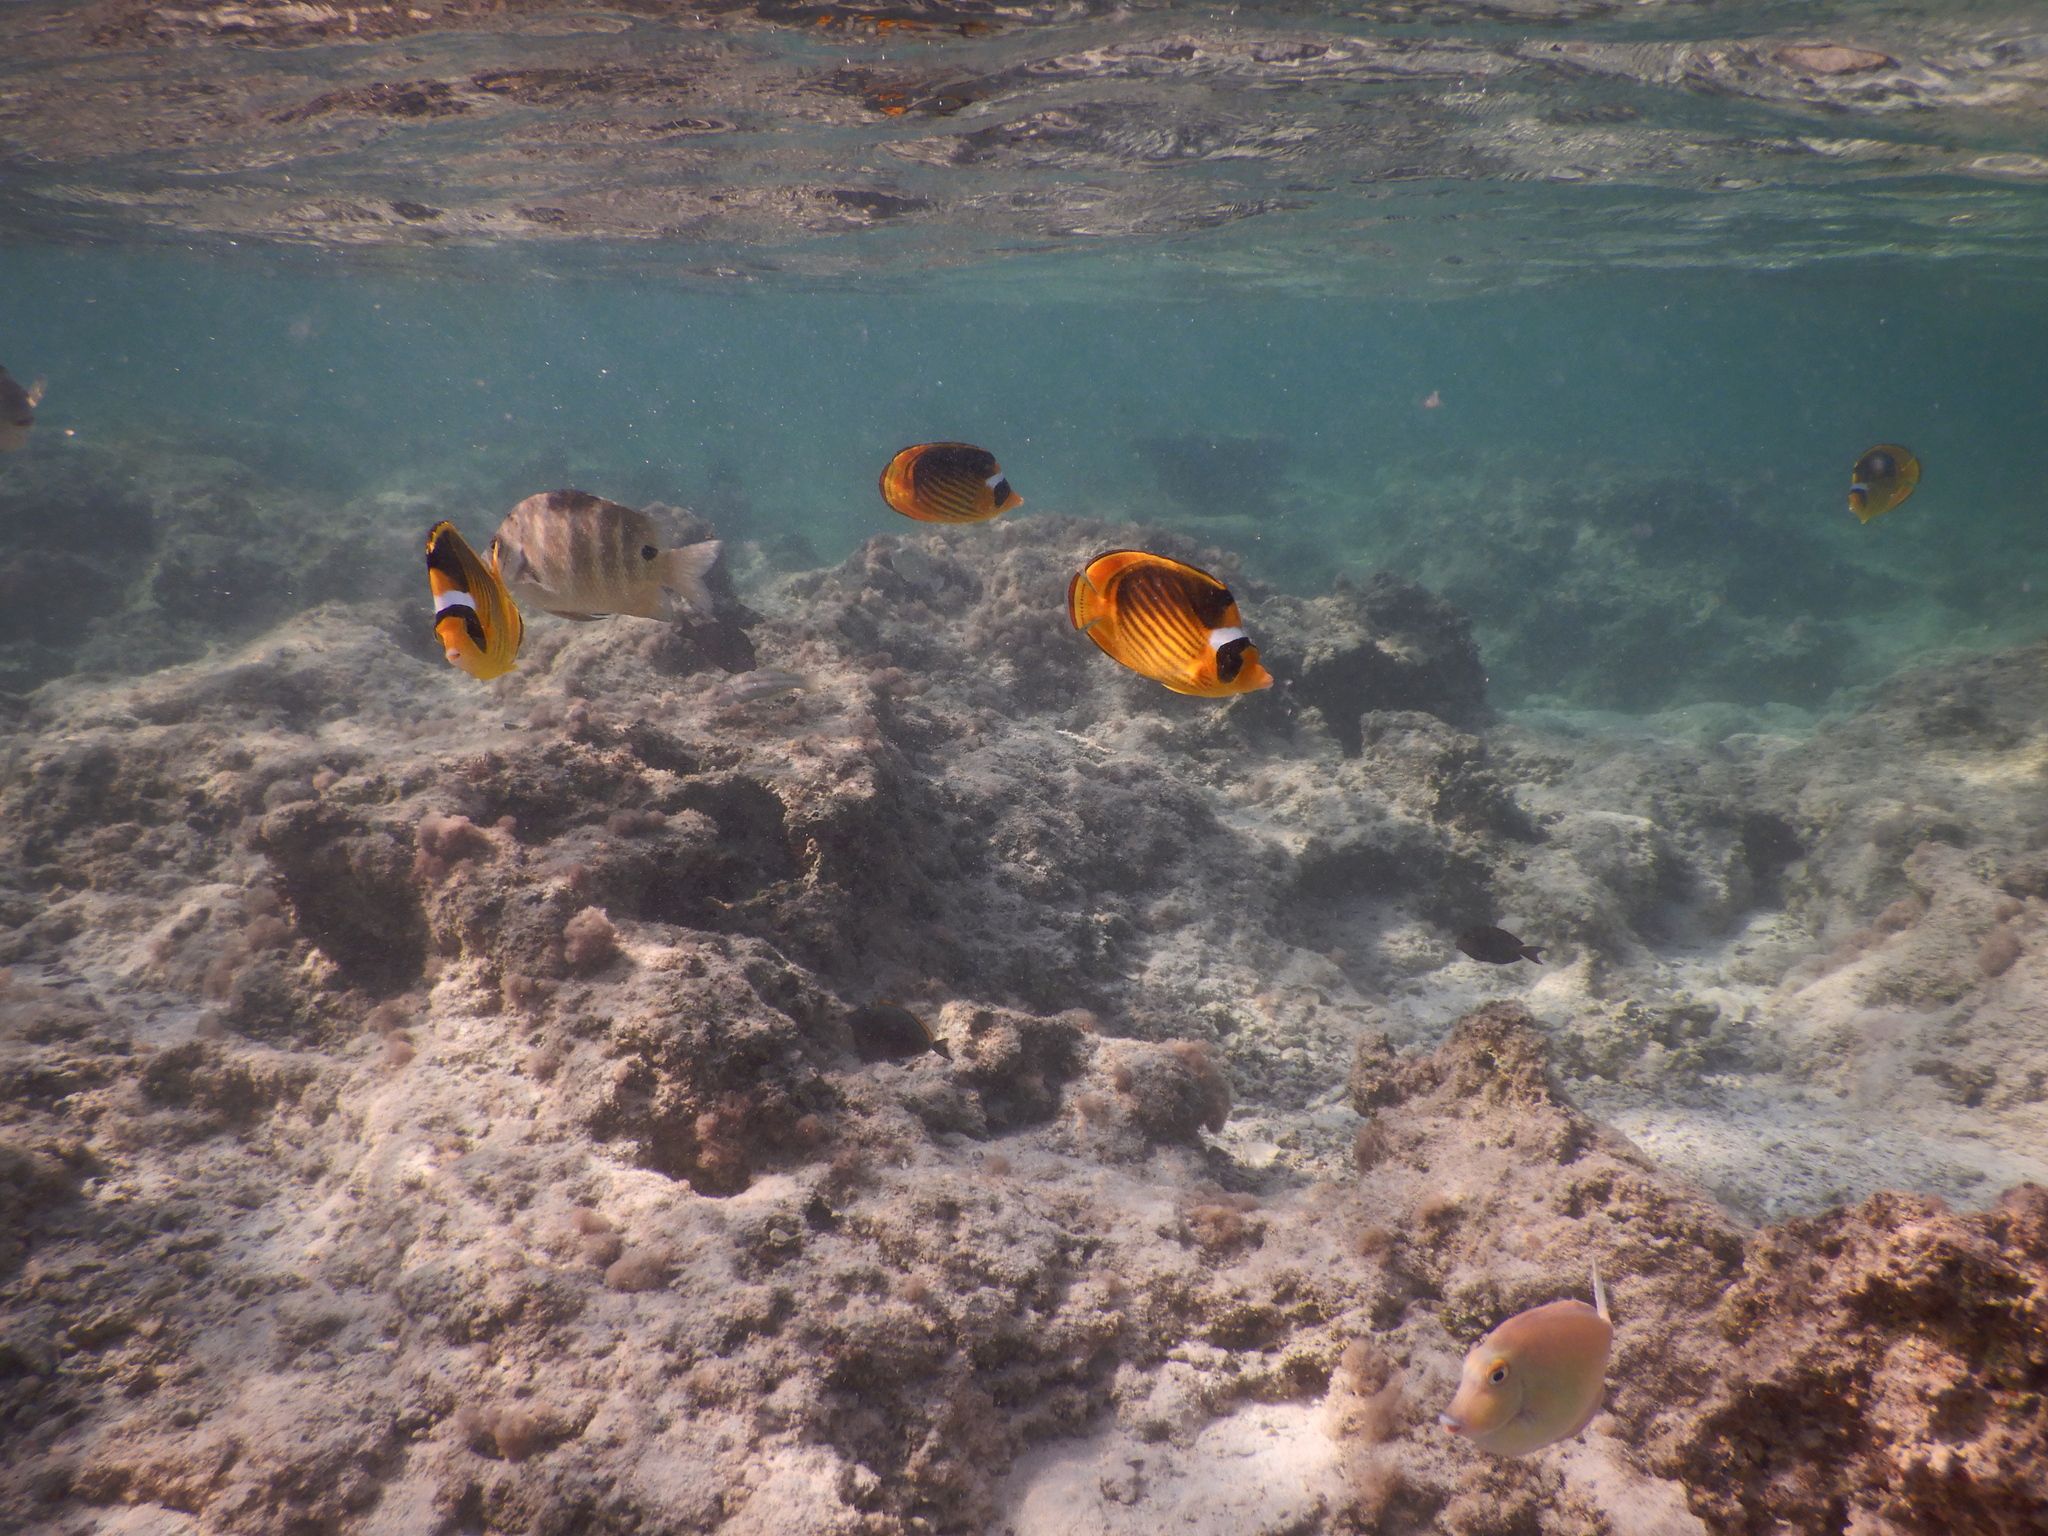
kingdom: Animalia
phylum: Chordata
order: Perciformes
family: Chaetodontidae
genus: Chaetodon
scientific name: Chaetodon fasciatus
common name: Diagonal butterflyfish
